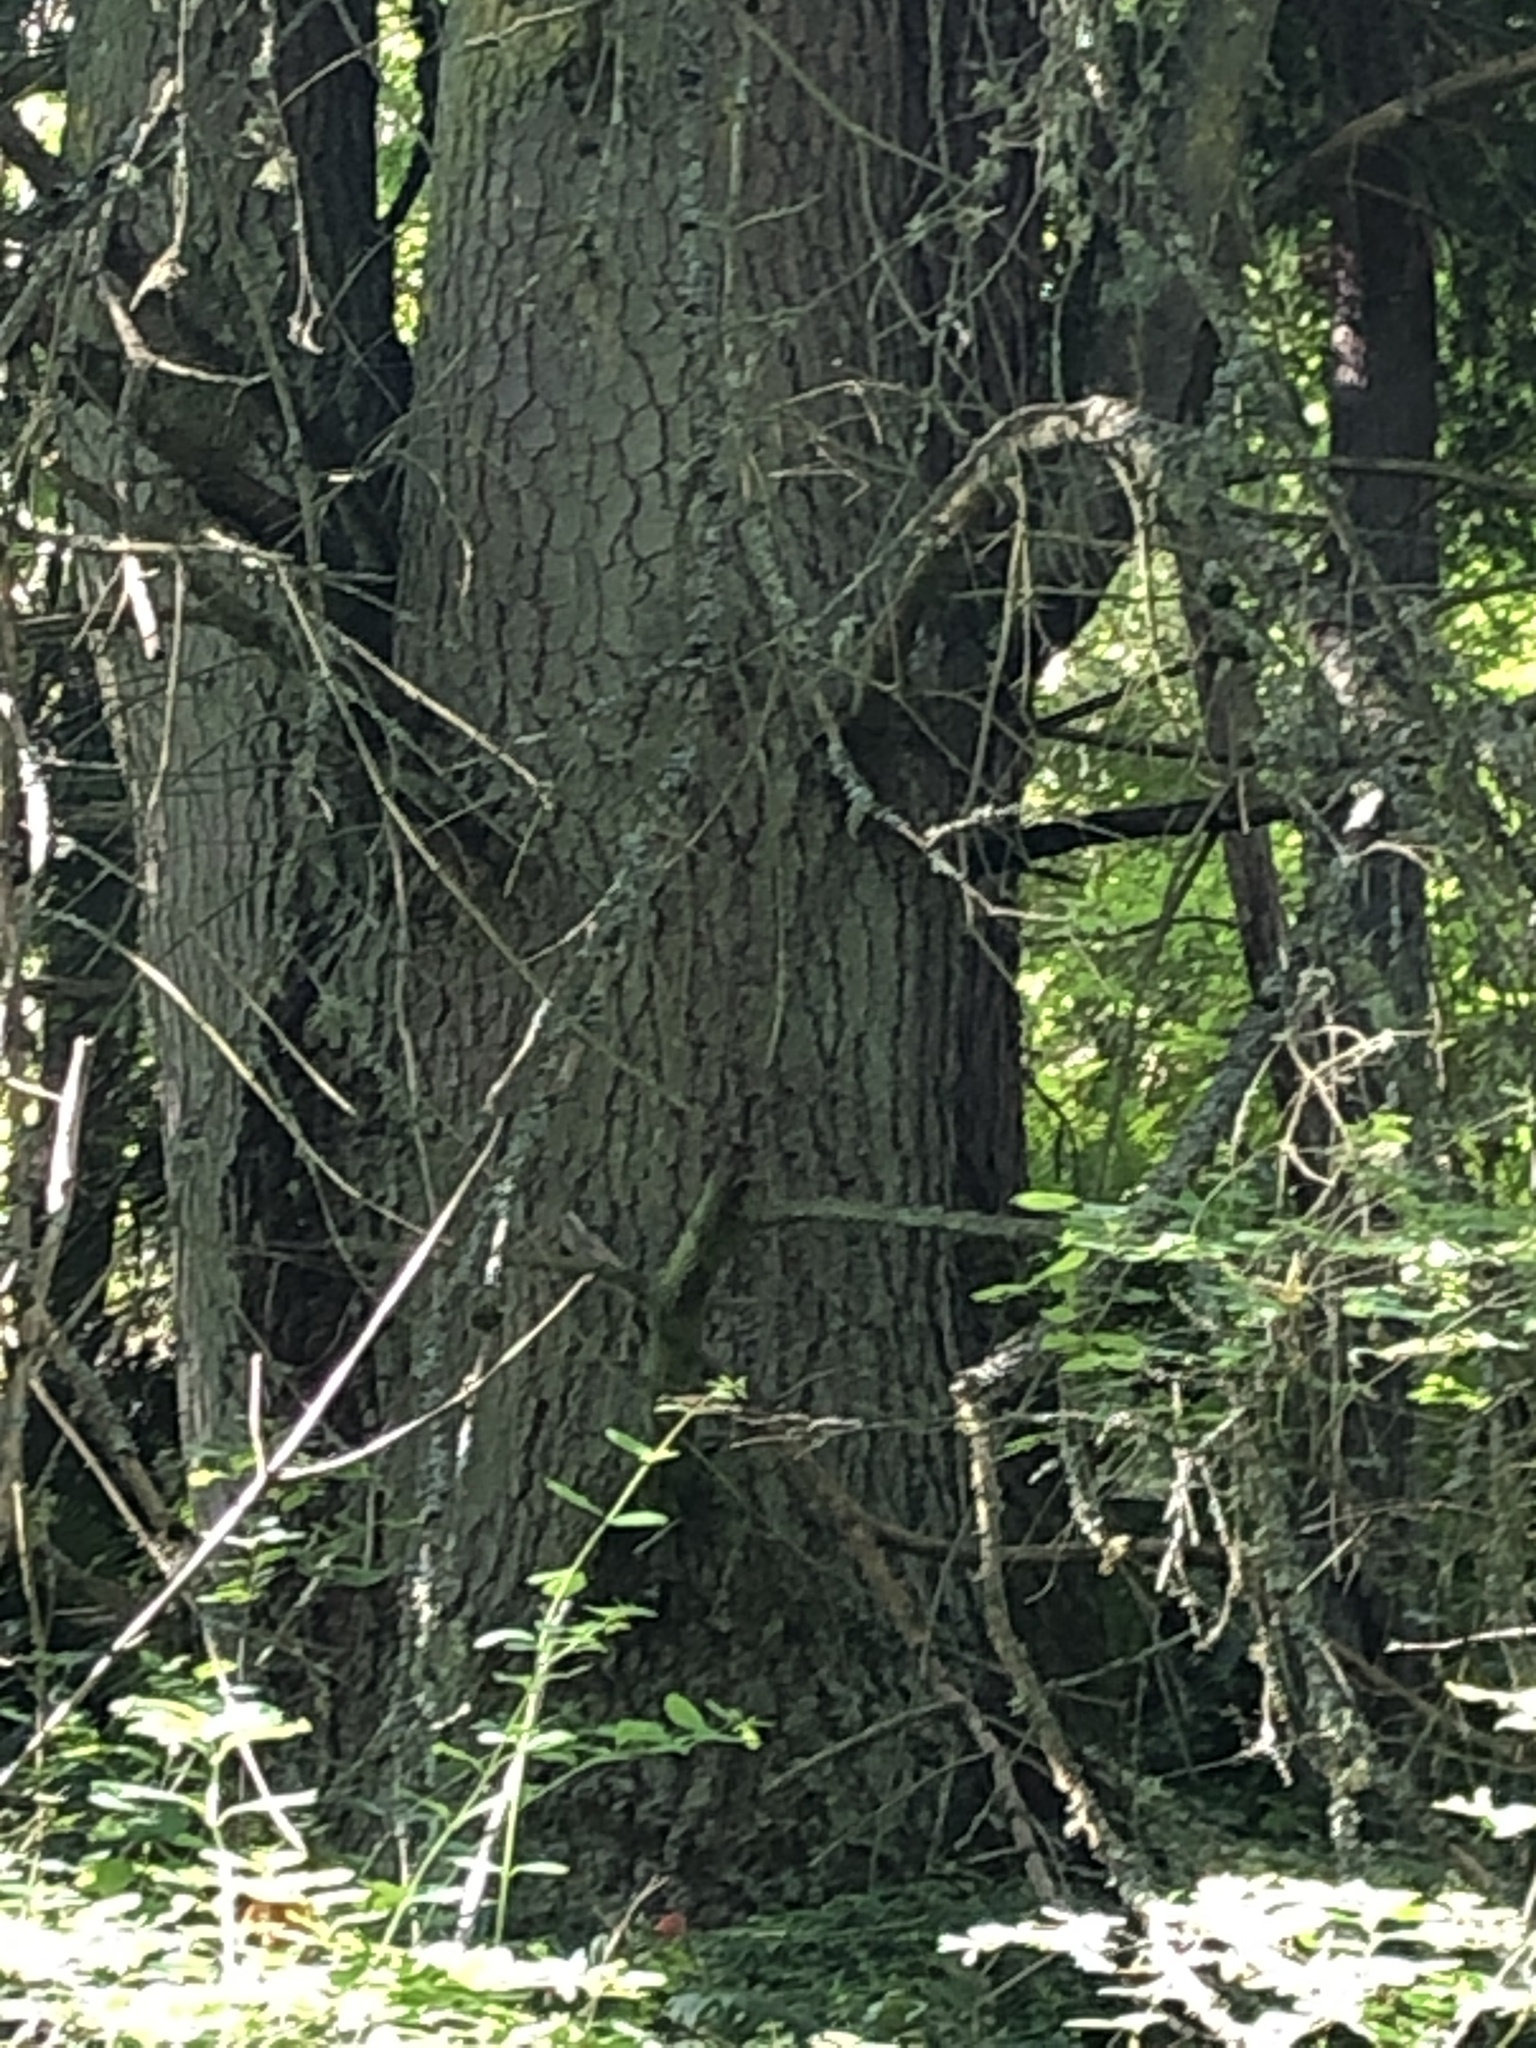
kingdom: Plantae
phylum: Tracheophyta
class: Pinopsida
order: Pinales
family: Pinaceae
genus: Abies
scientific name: Abies grandis
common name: Giant fir
